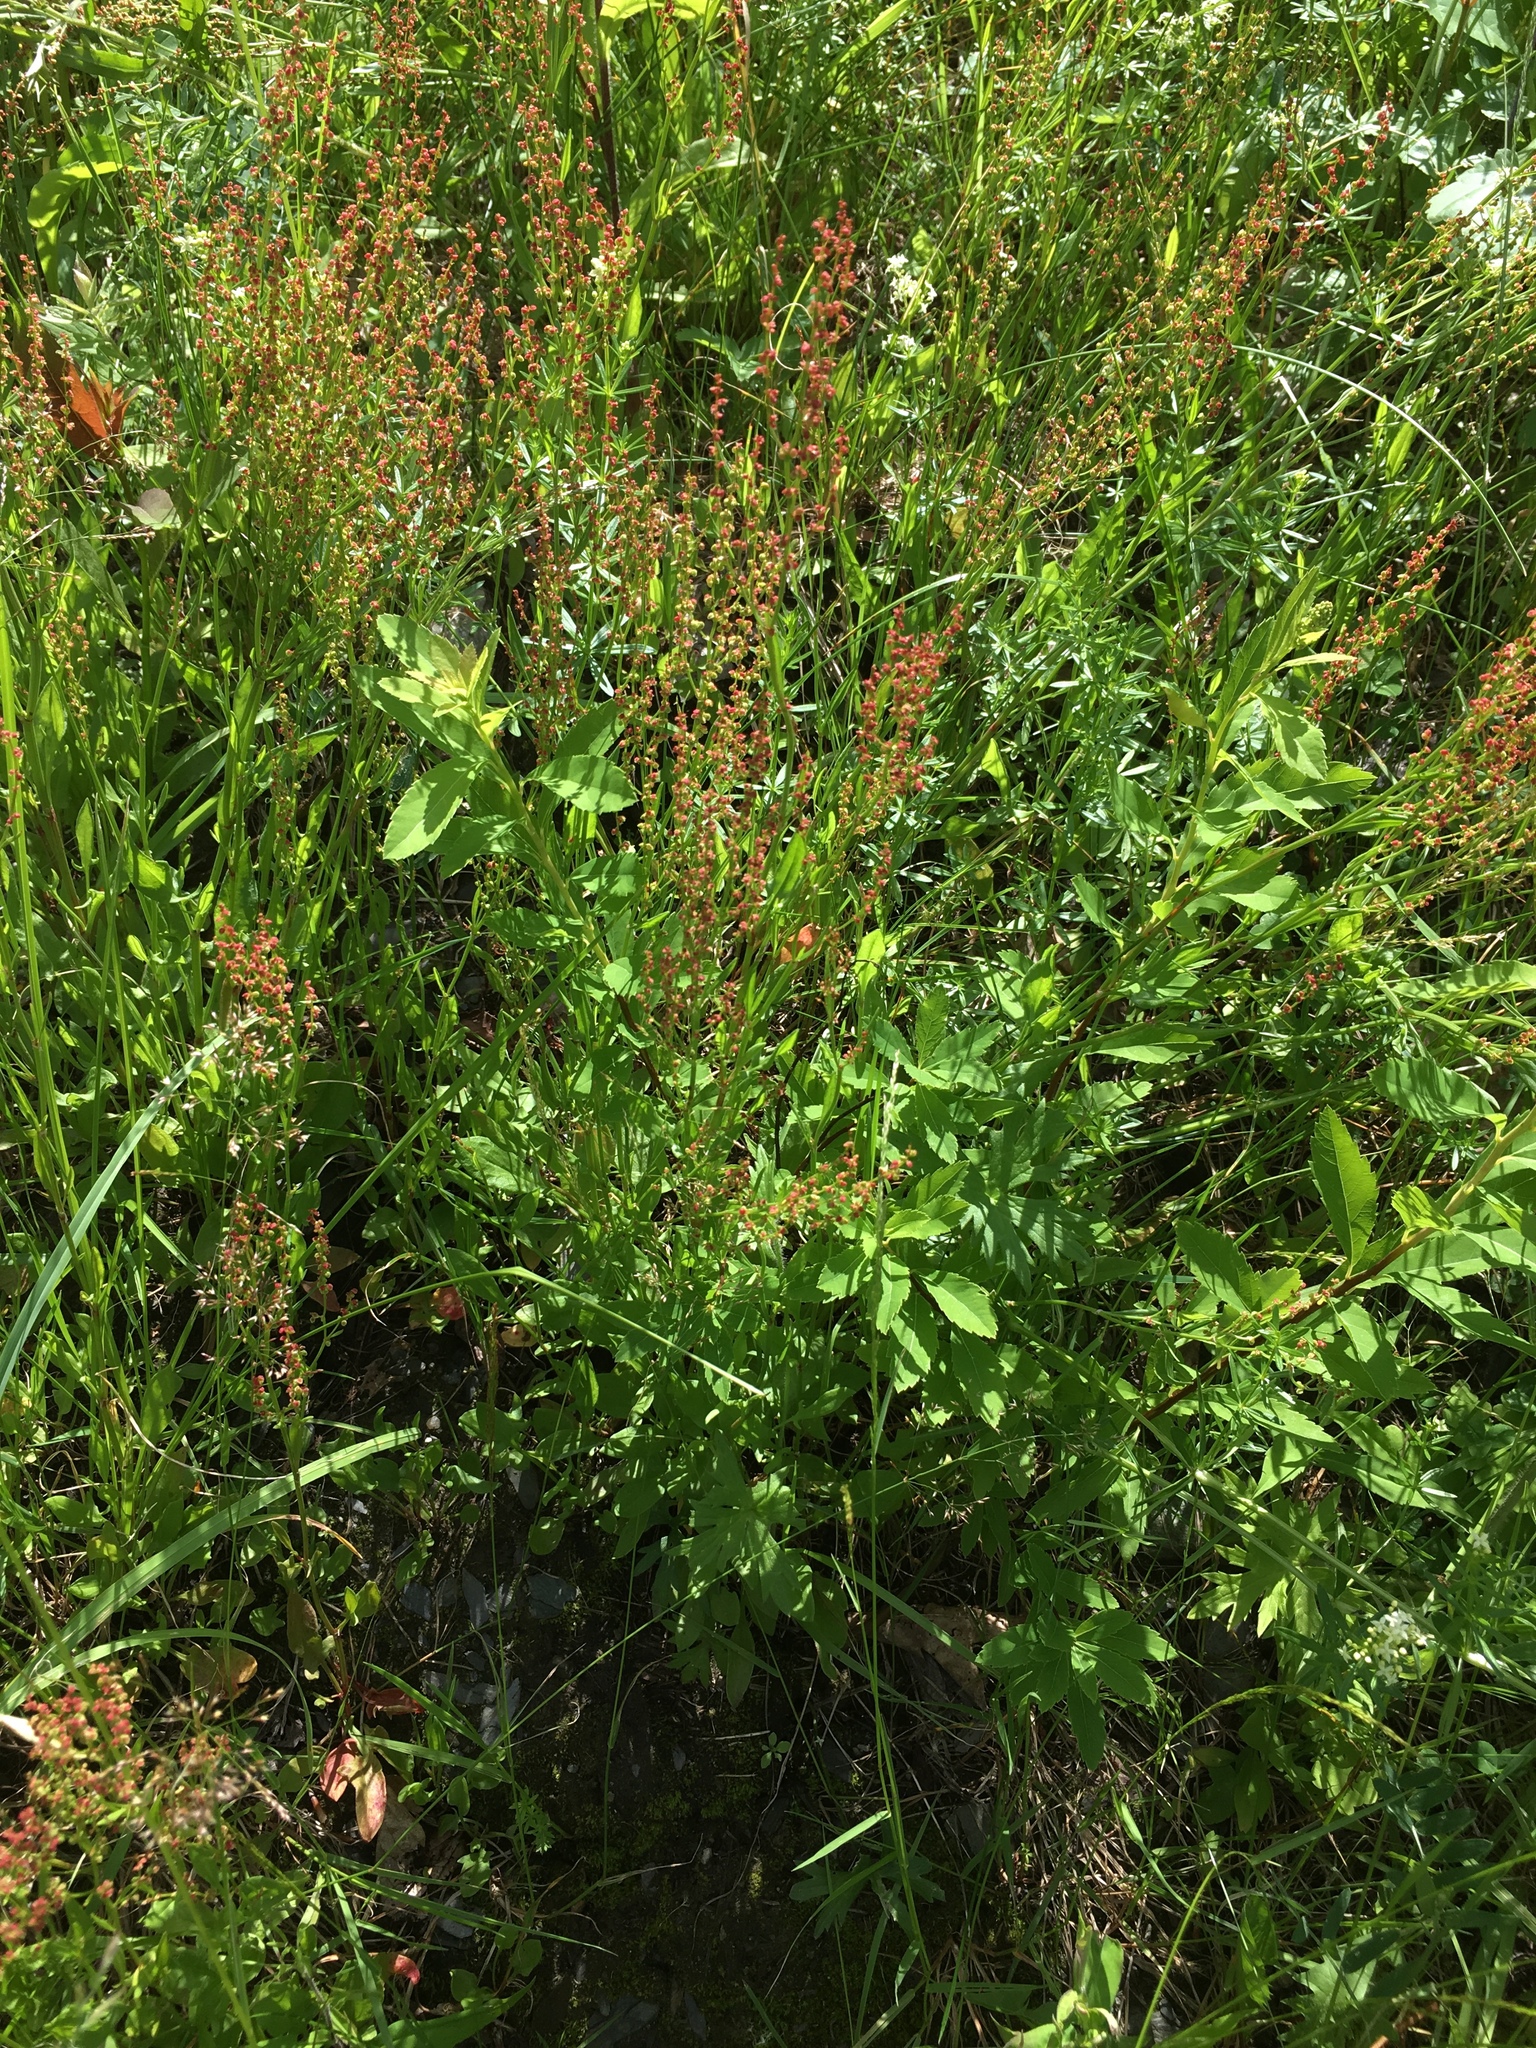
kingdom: Plantae
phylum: Tracheophyta
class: Magnoliopsida
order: Caryophyllales
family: Polygonaceae
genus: Rumex
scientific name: Rumex acetosella
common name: Common sheep sorrel
